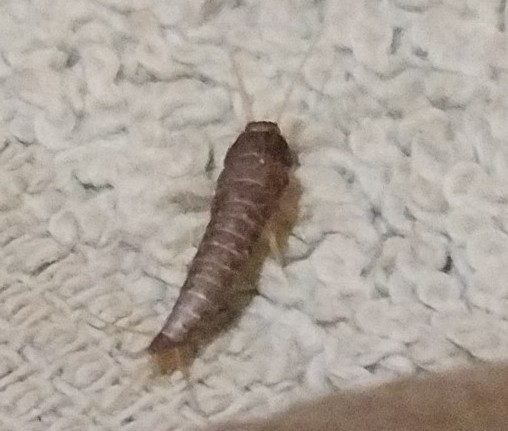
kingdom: Animalia
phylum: Arthropoda
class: Insecta
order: Zygentoma
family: Lepismatidae
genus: Lepisma
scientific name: Lepisma saccharinum
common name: Silverfish
